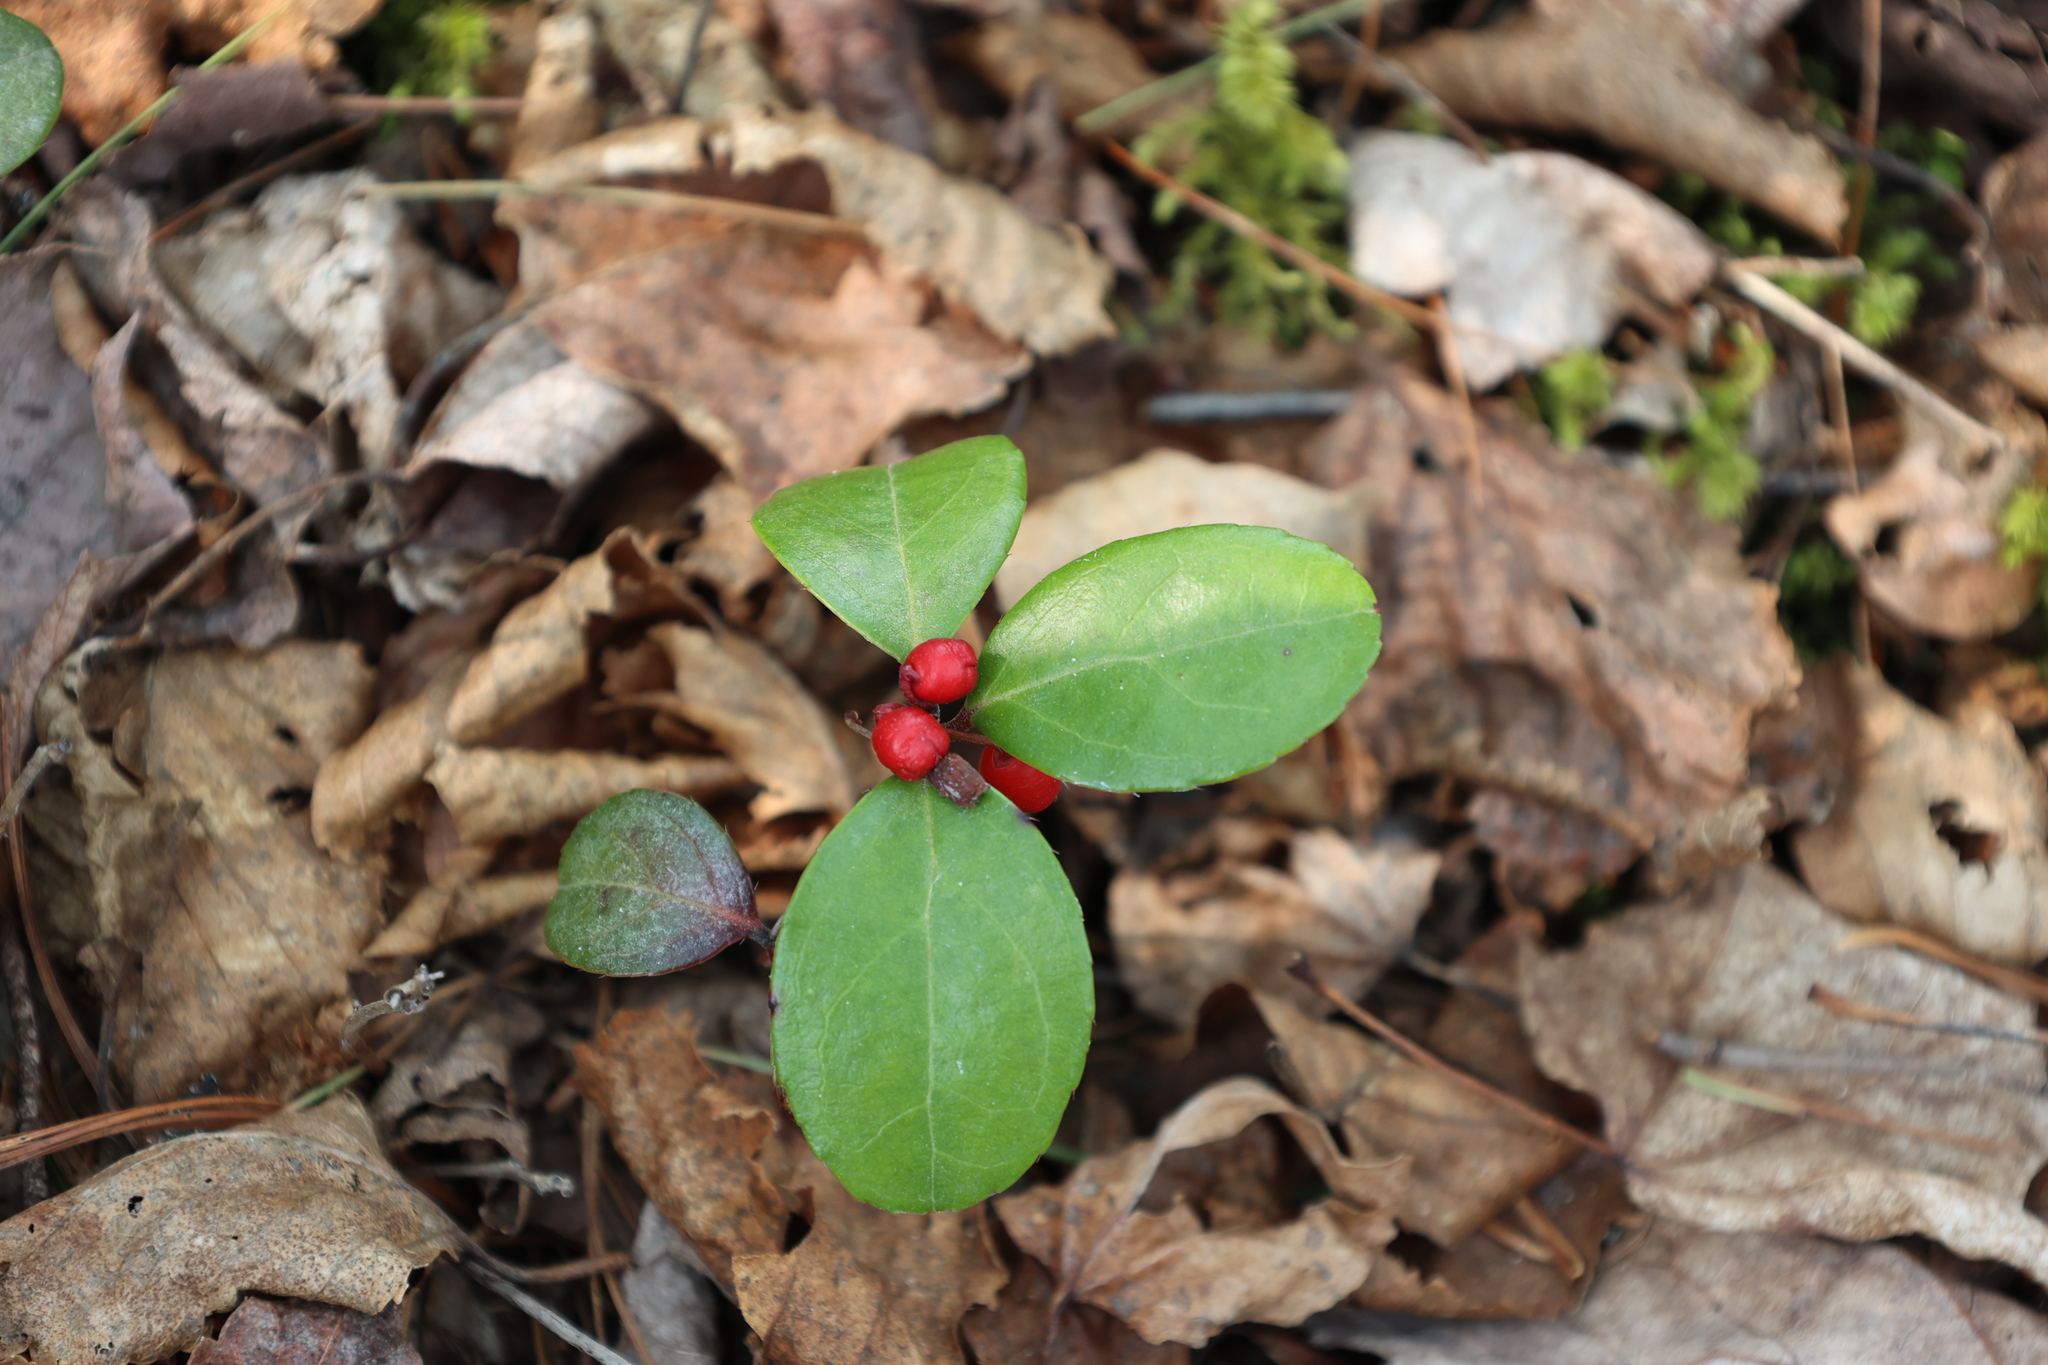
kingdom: Plantae
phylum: Tracheophyta
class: Magnoliopsida
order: Ericales
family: Ericaceae
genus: Gaultheria
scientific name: Gaultheria procumbens
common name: Checkerberry
